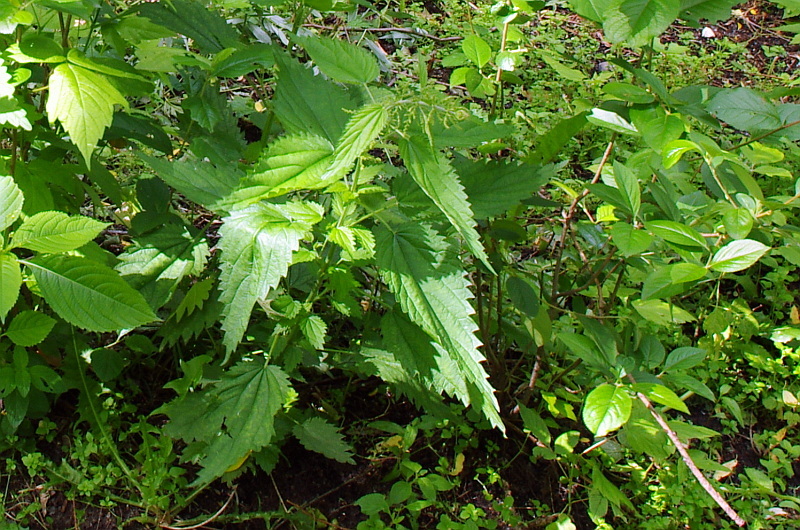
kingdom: Plantae
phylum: Tracheophyta
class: Magnoliopsida
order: Rosales
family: Urticaceae
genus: Urtica
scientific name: Urtica dioica
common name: Common nettle
